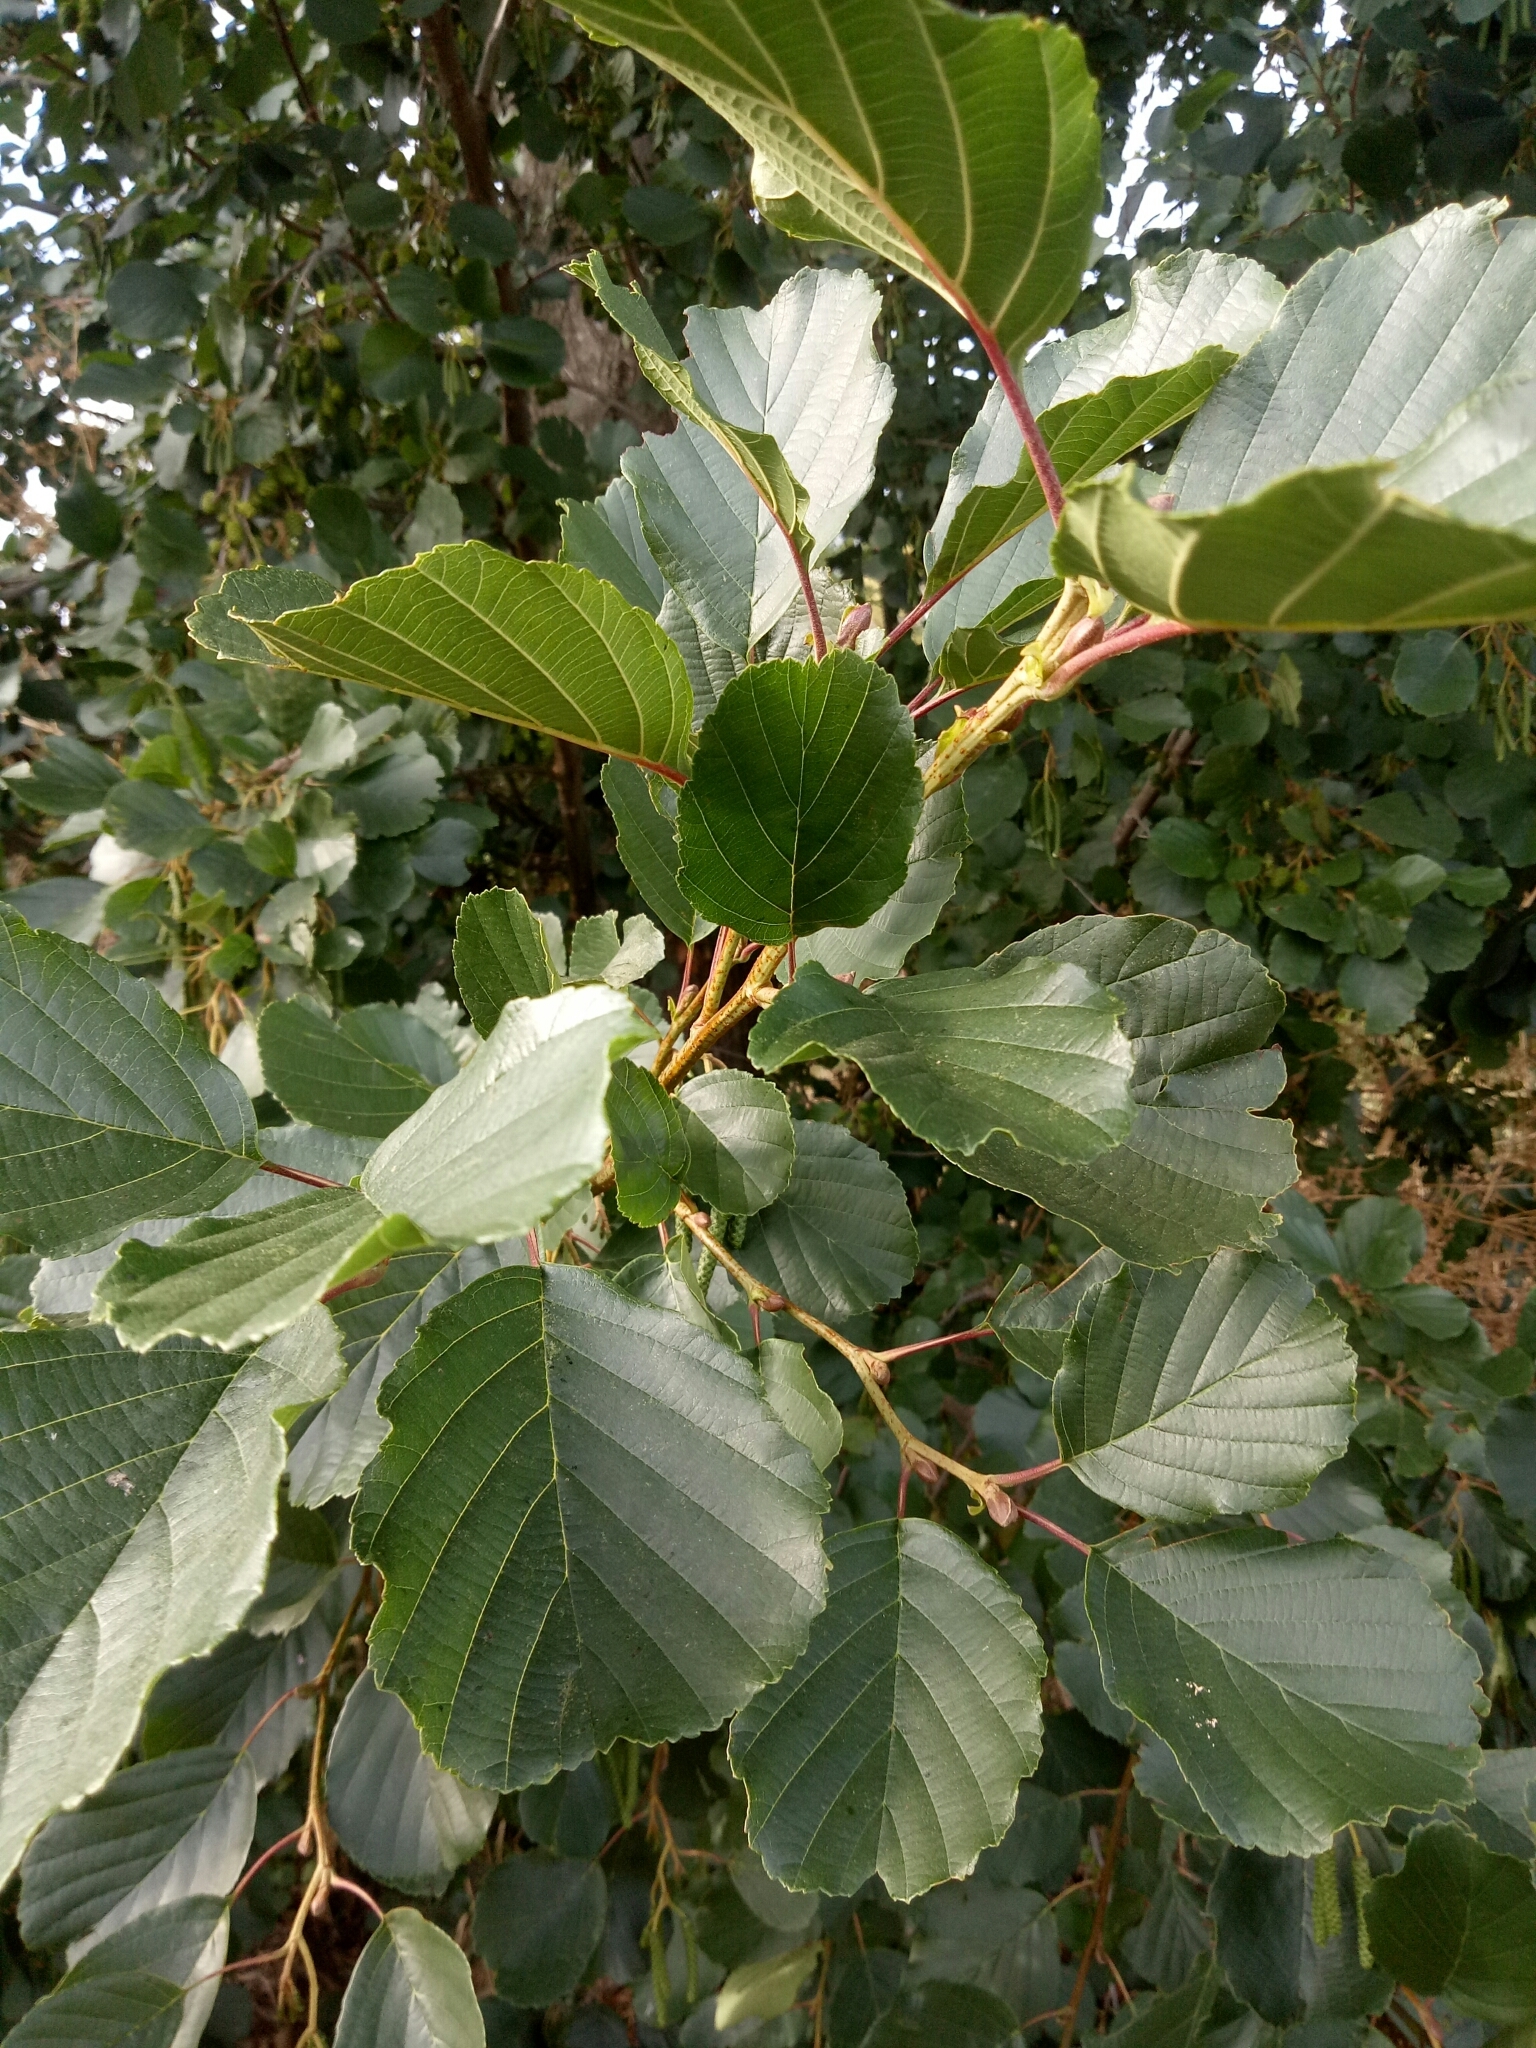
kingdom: Plantae
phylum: Tracheophyta
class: Magnoliopsida
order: Fagales
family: Betulaceae
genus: Alnus
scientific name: Alnus glutinosa
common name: Black alder
